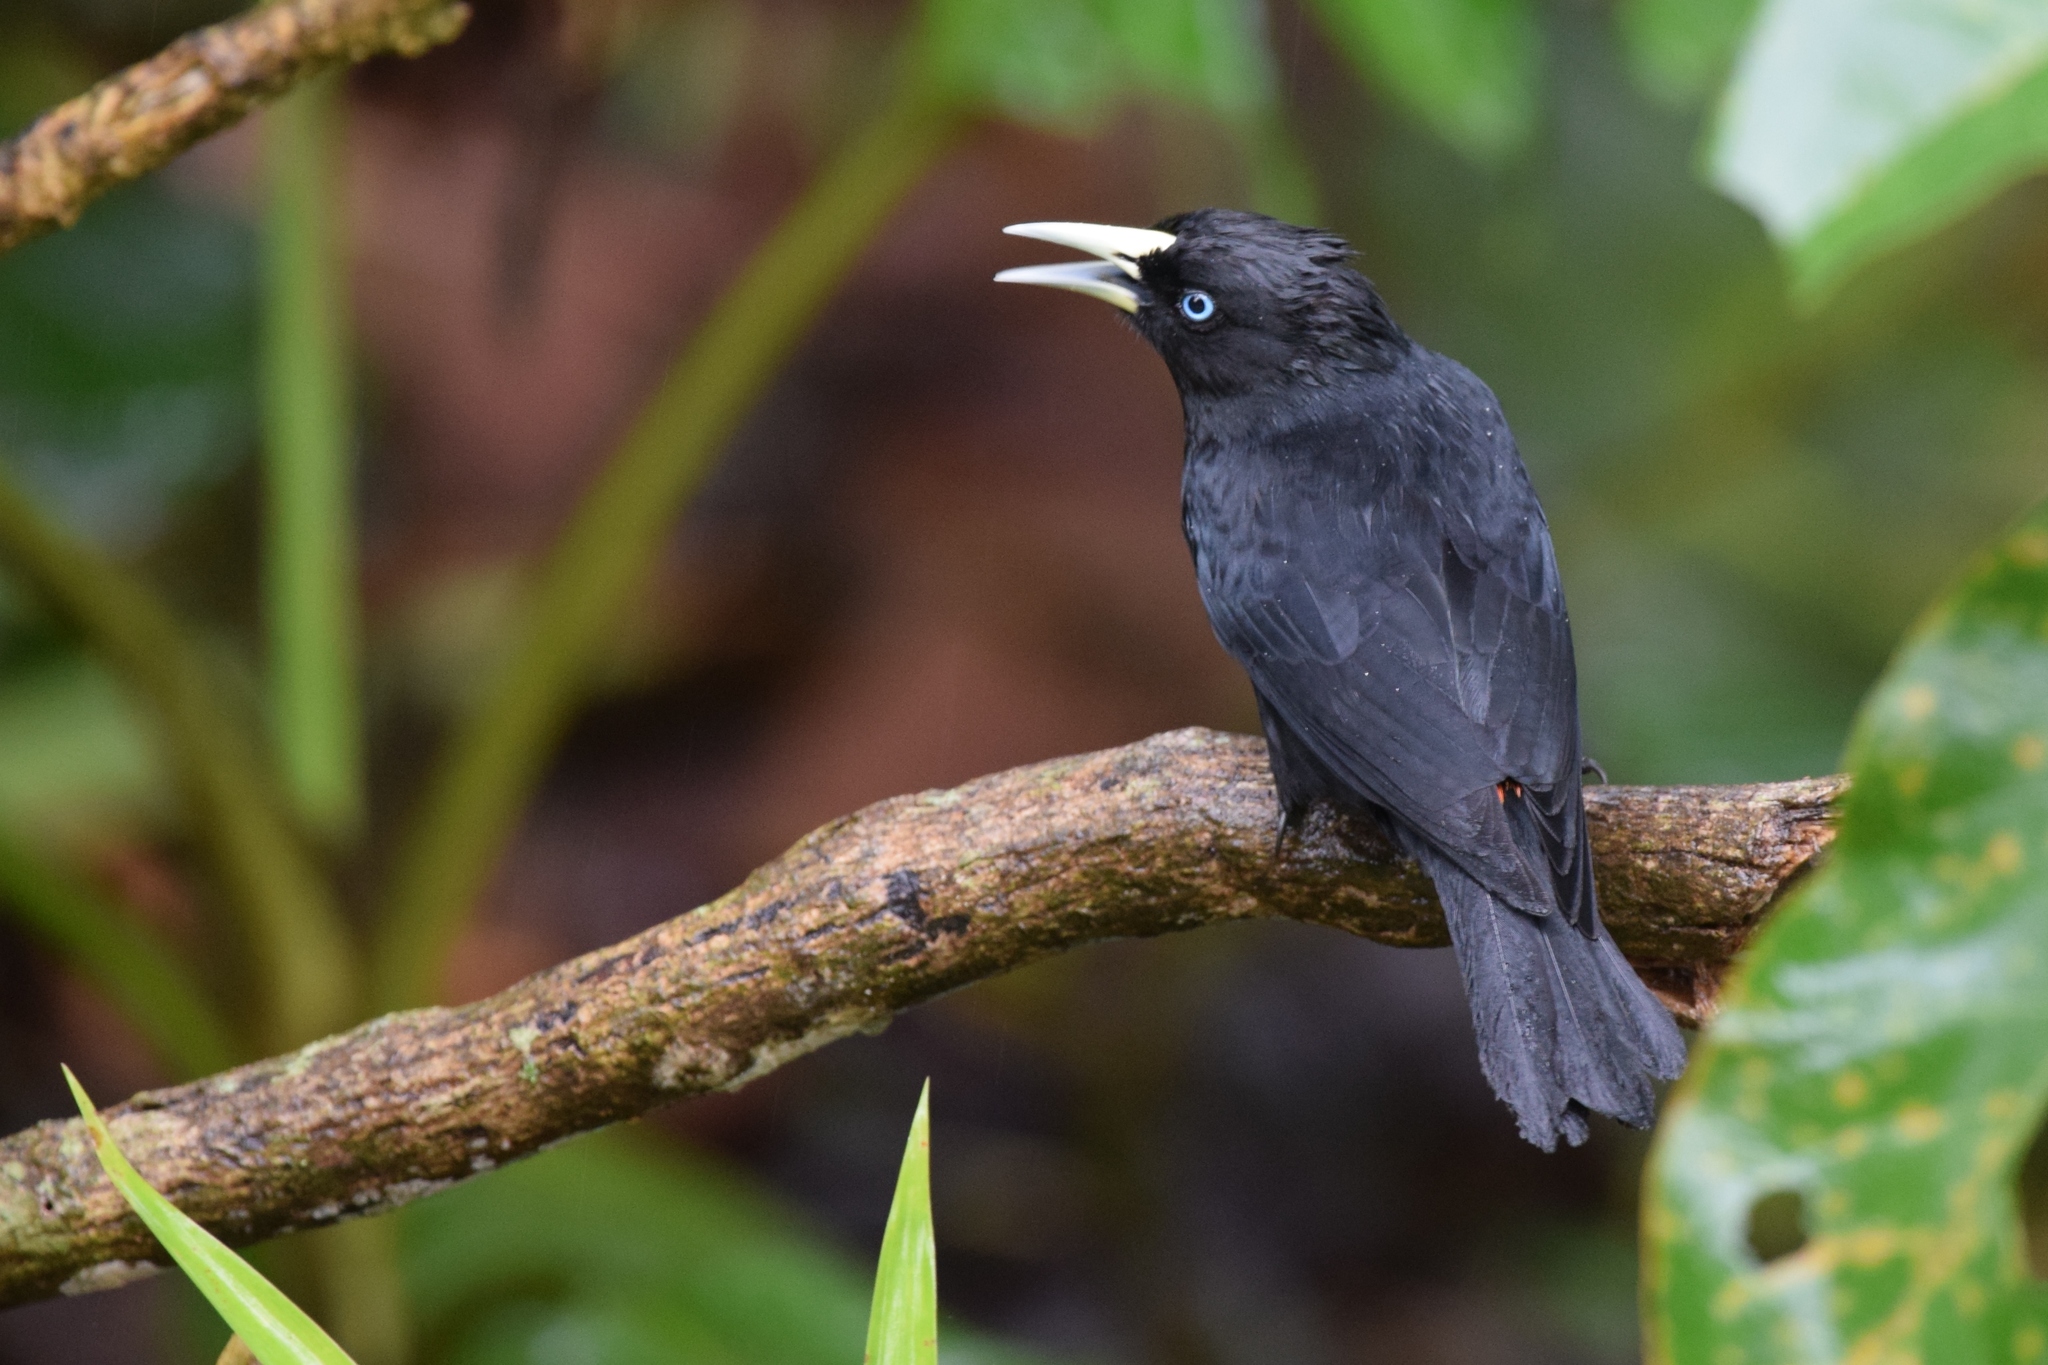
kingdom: Animalia
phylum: Chordata
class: Aves
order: Passeriformes
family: Icteridae
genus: Cacicus
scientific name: Cacicus uropygialis
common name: Scarlet-rumped cacique
